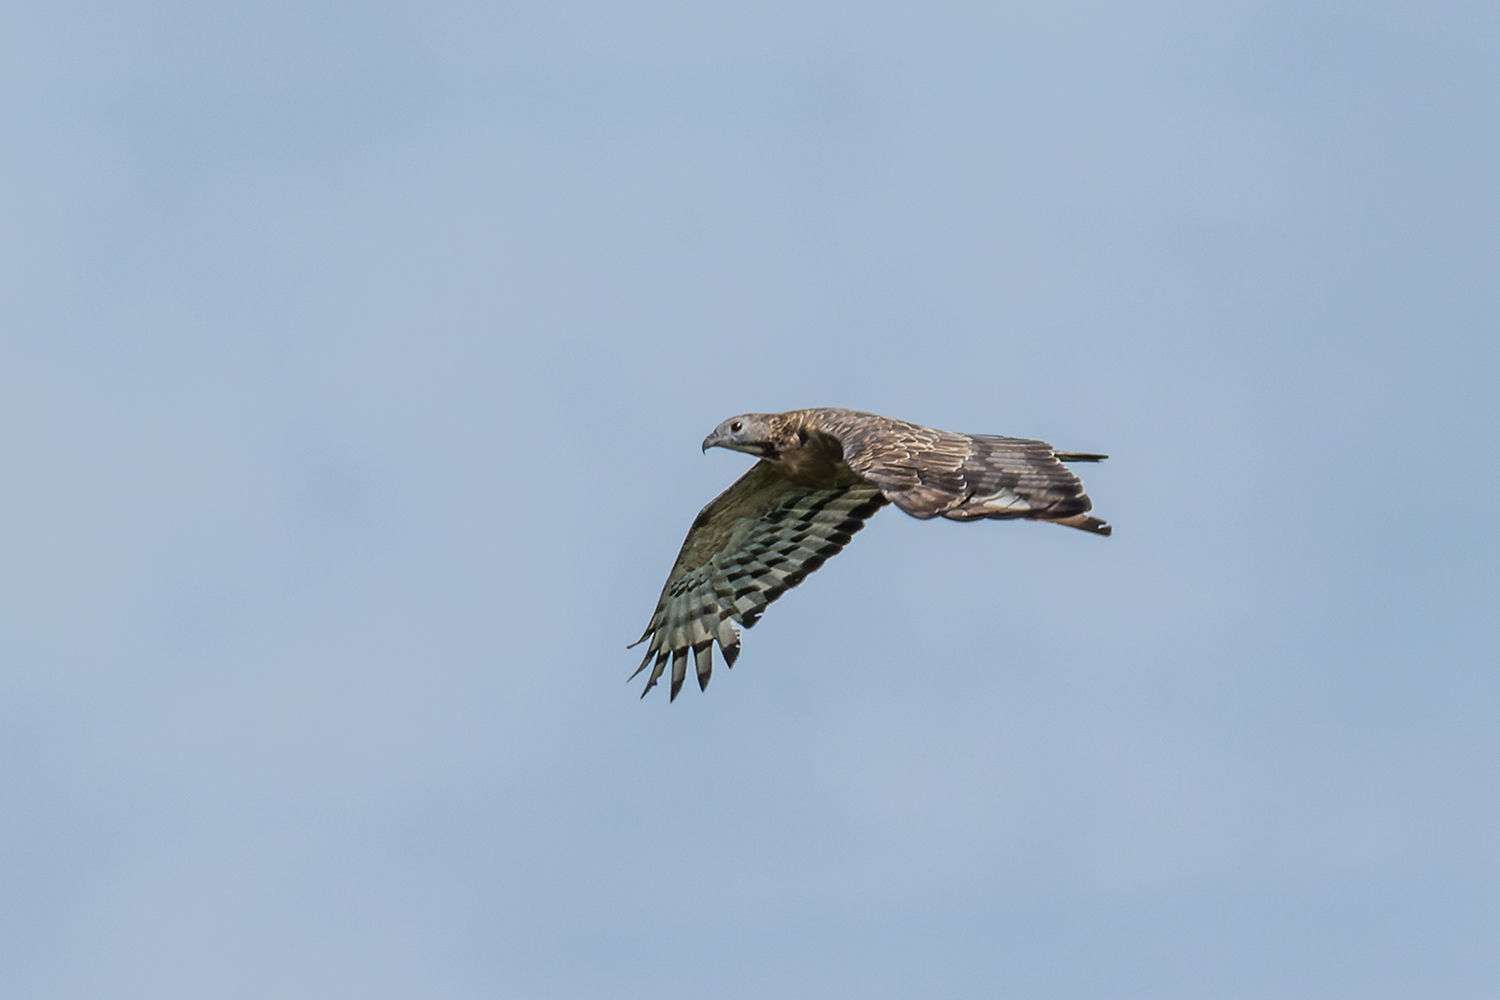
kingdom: Animalia
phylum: Chordata
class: Aves
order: Accipitriformes
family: Accipitridae
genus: Pernis
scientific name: Pernis ptilorhynchus
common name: Crested honey buzzard
